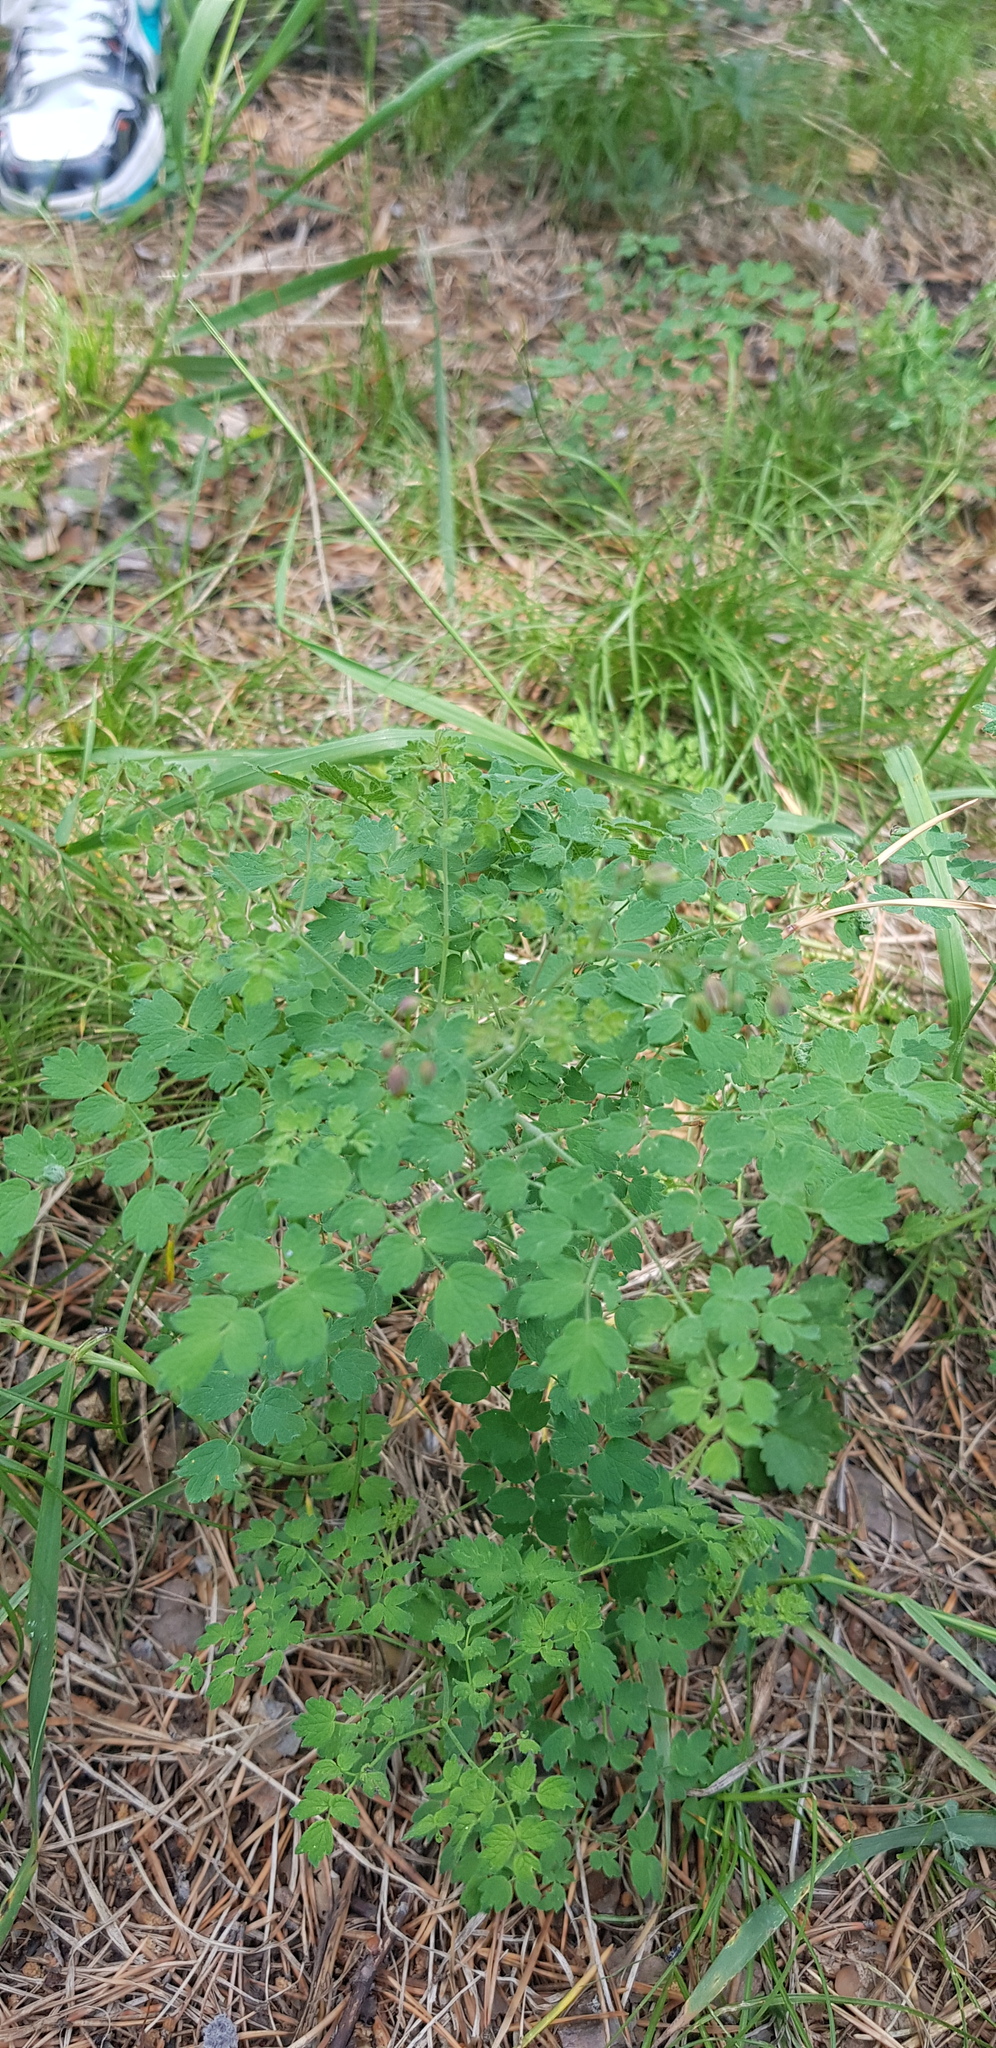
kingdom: Plantae
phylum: Tracheophyta
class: Magnoliopsida
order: Ranunculales
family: Ranunculaceae
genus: Thalictrum
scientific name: Thalictrum foetidum
